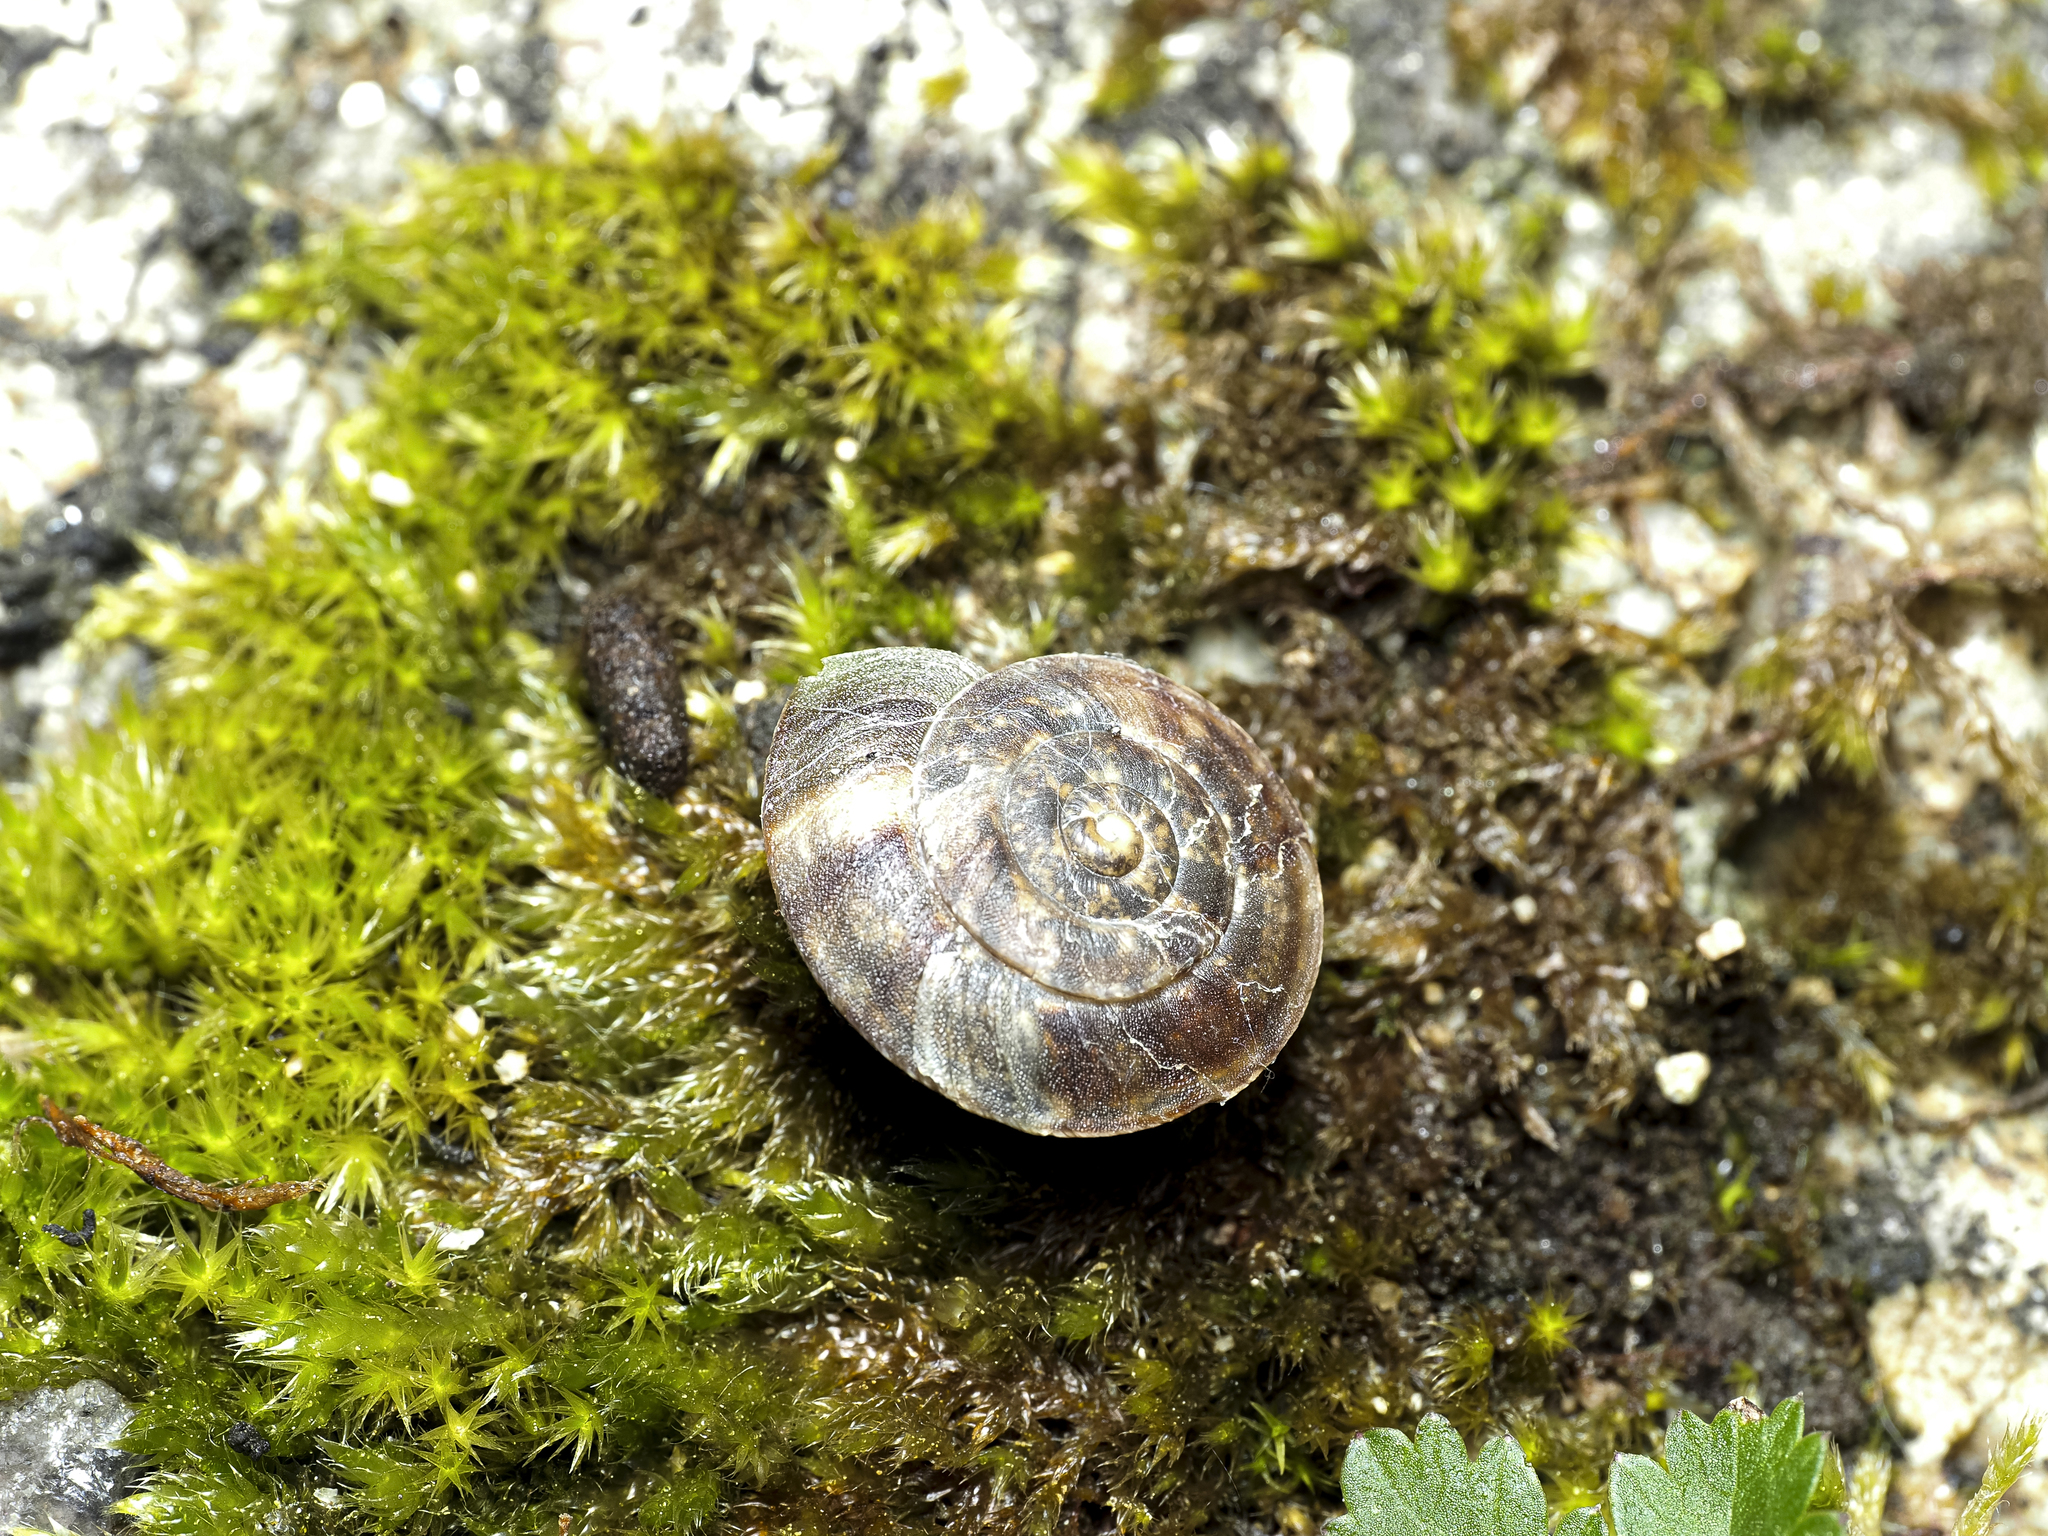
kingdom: Animalia
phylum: Mollusca
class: Gastropoda
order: Stylommatophora
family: Helicidae
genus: Helicigona
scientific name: Helicigona lapicida
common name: Lapidary snail
